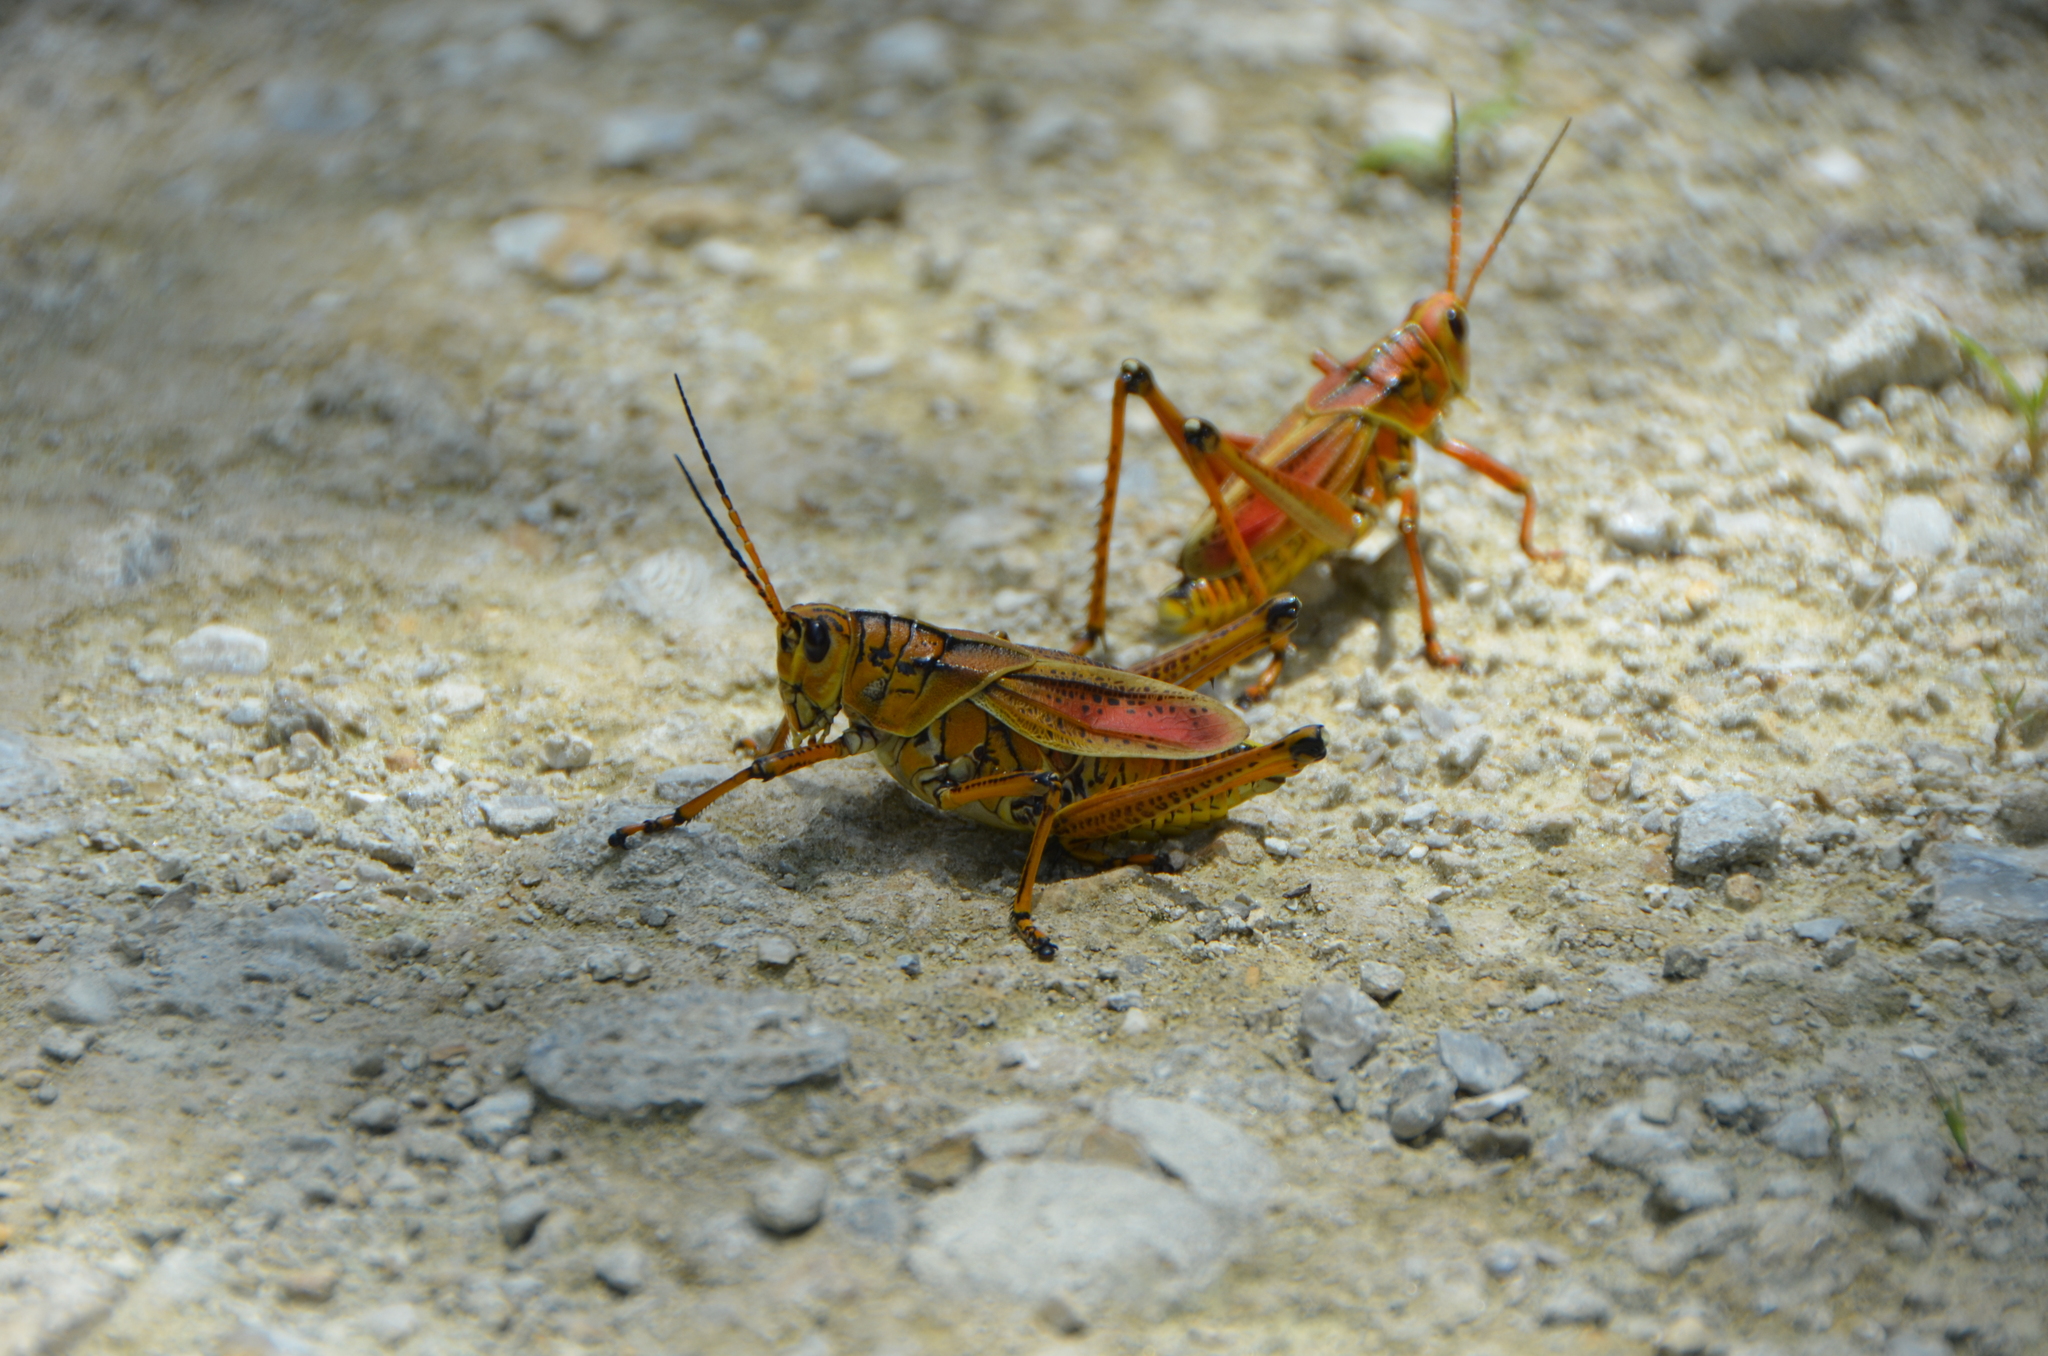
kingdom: Animalia
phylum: Arthropoda
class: Insecta
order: Orthoptera
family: Romaleidae
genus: Romalea
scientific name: Romalea microptera
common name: Eastern lubber grasshopper
